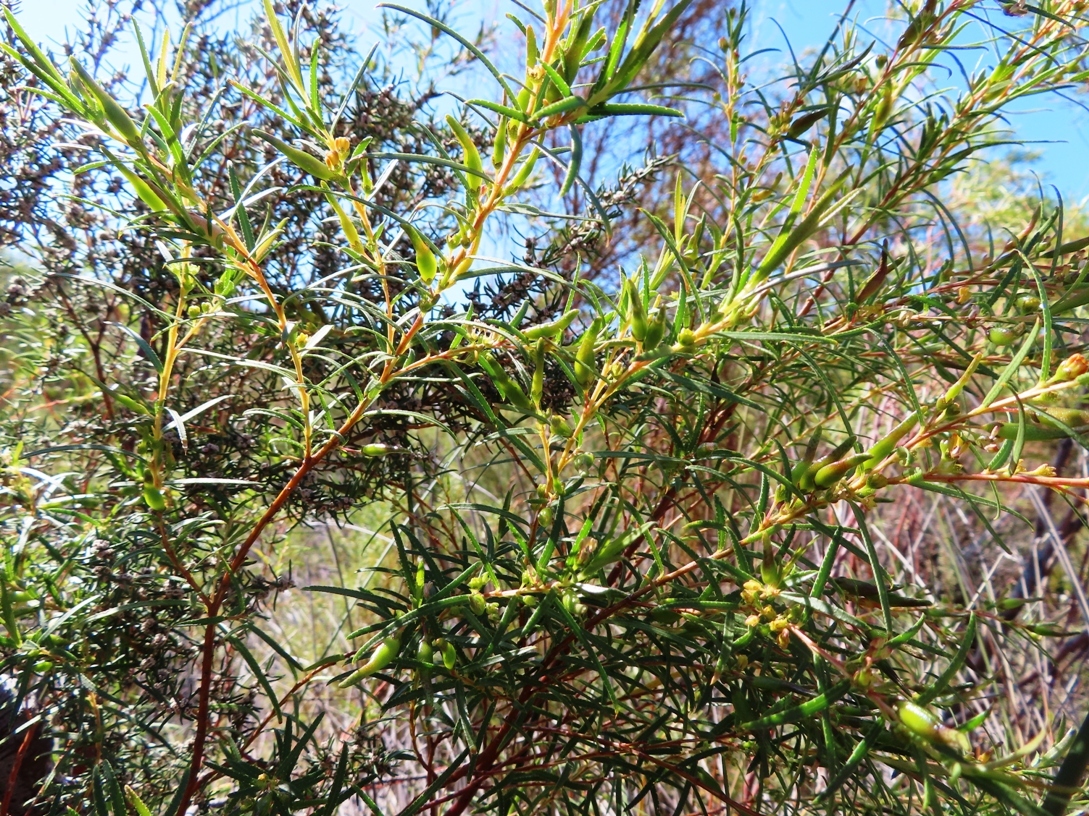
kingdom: Plantae
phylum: Tracheophyta
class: Magnoliopsida
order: Sapindales
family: Rutaceae
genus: Empleurum
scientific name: Empleurum unicapsulare
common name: False buchu
